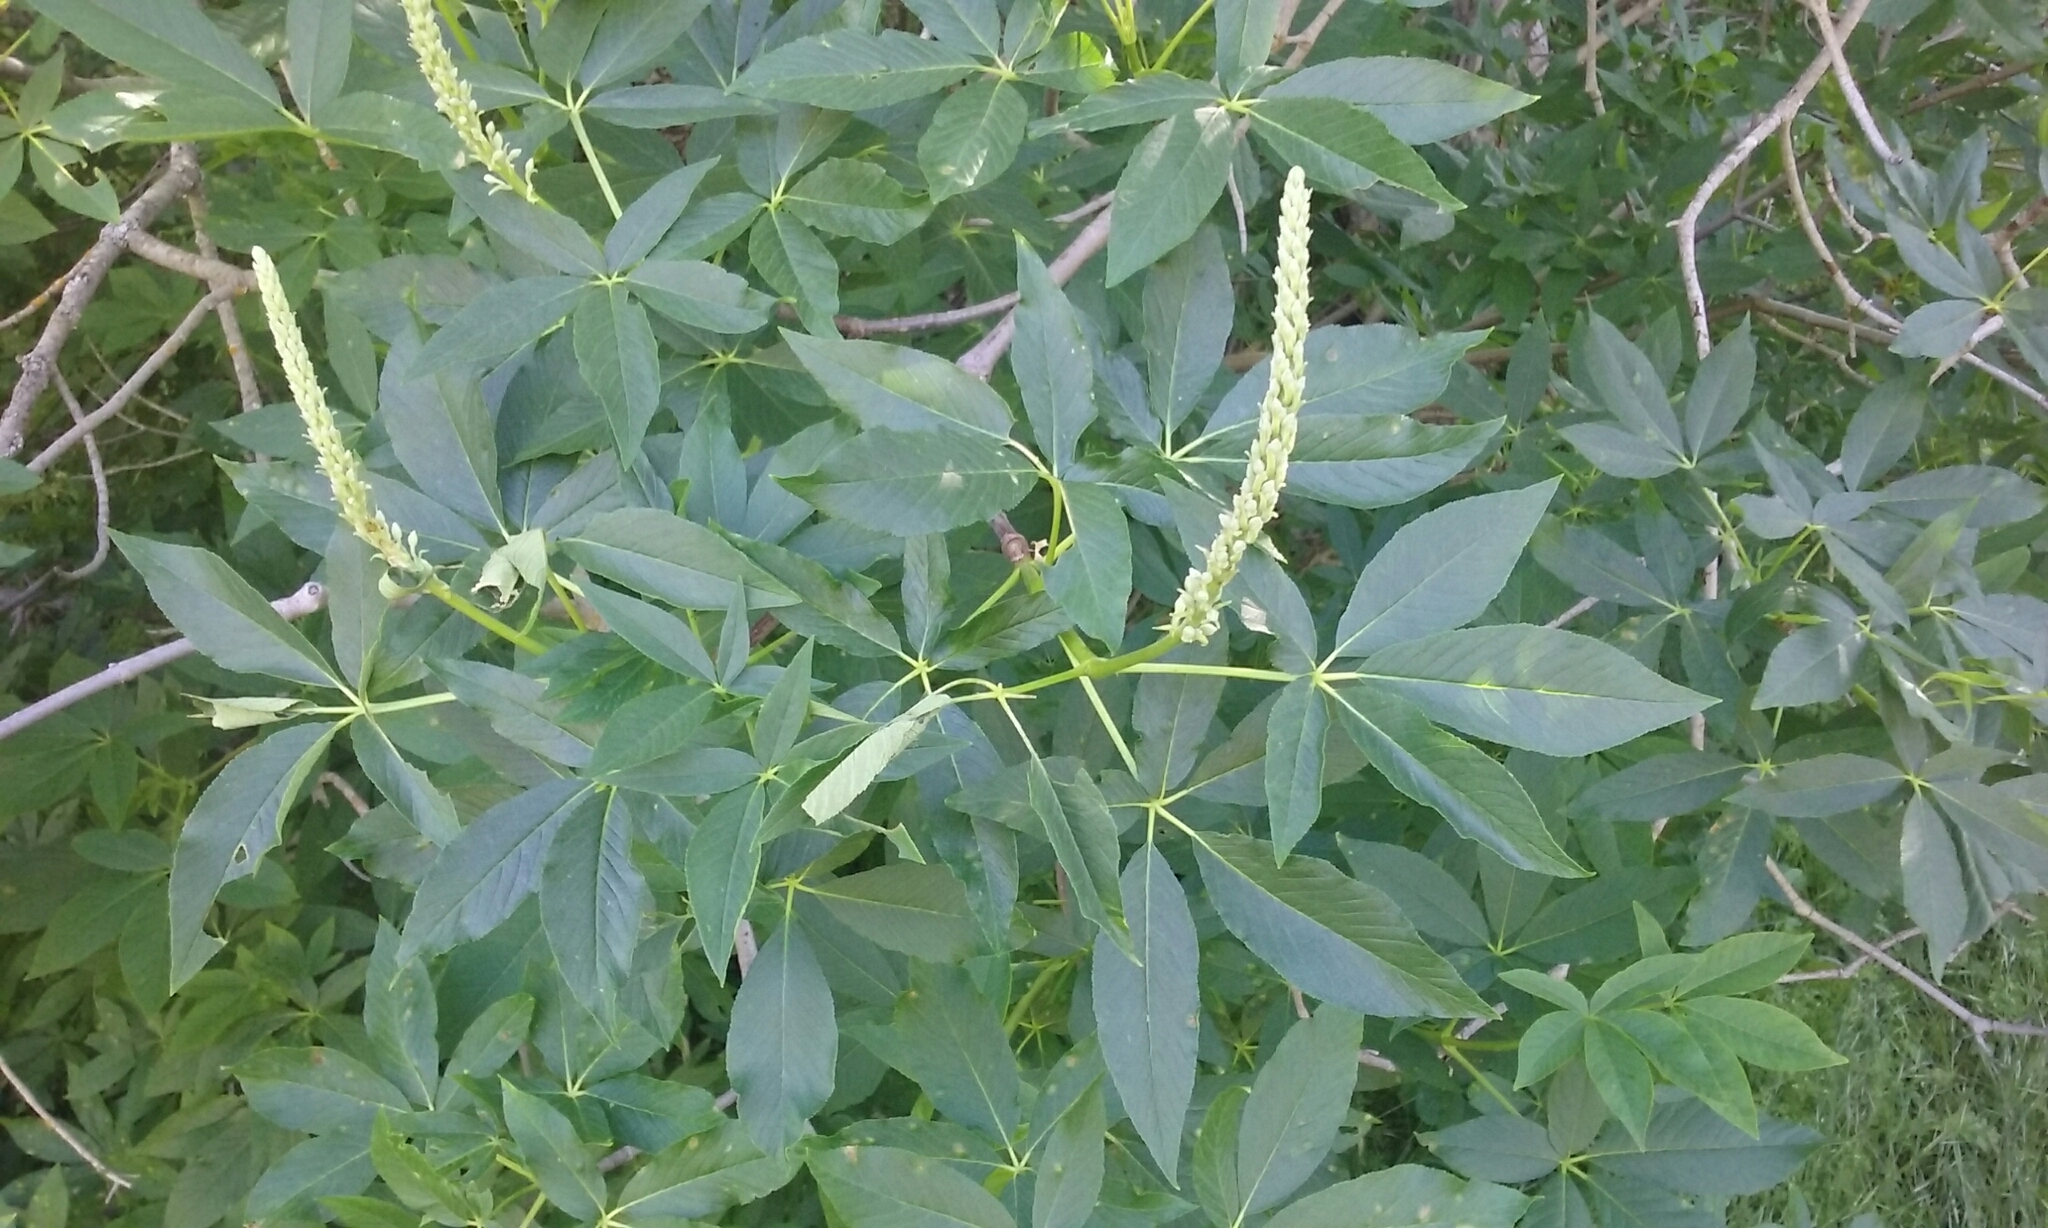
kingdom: Plantae
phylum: Tracheophyta
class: Magnoliopsida
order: Sapindales
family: Sapindaceae
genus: Aesculus
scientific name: Aesculus californica
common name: California buckeye
